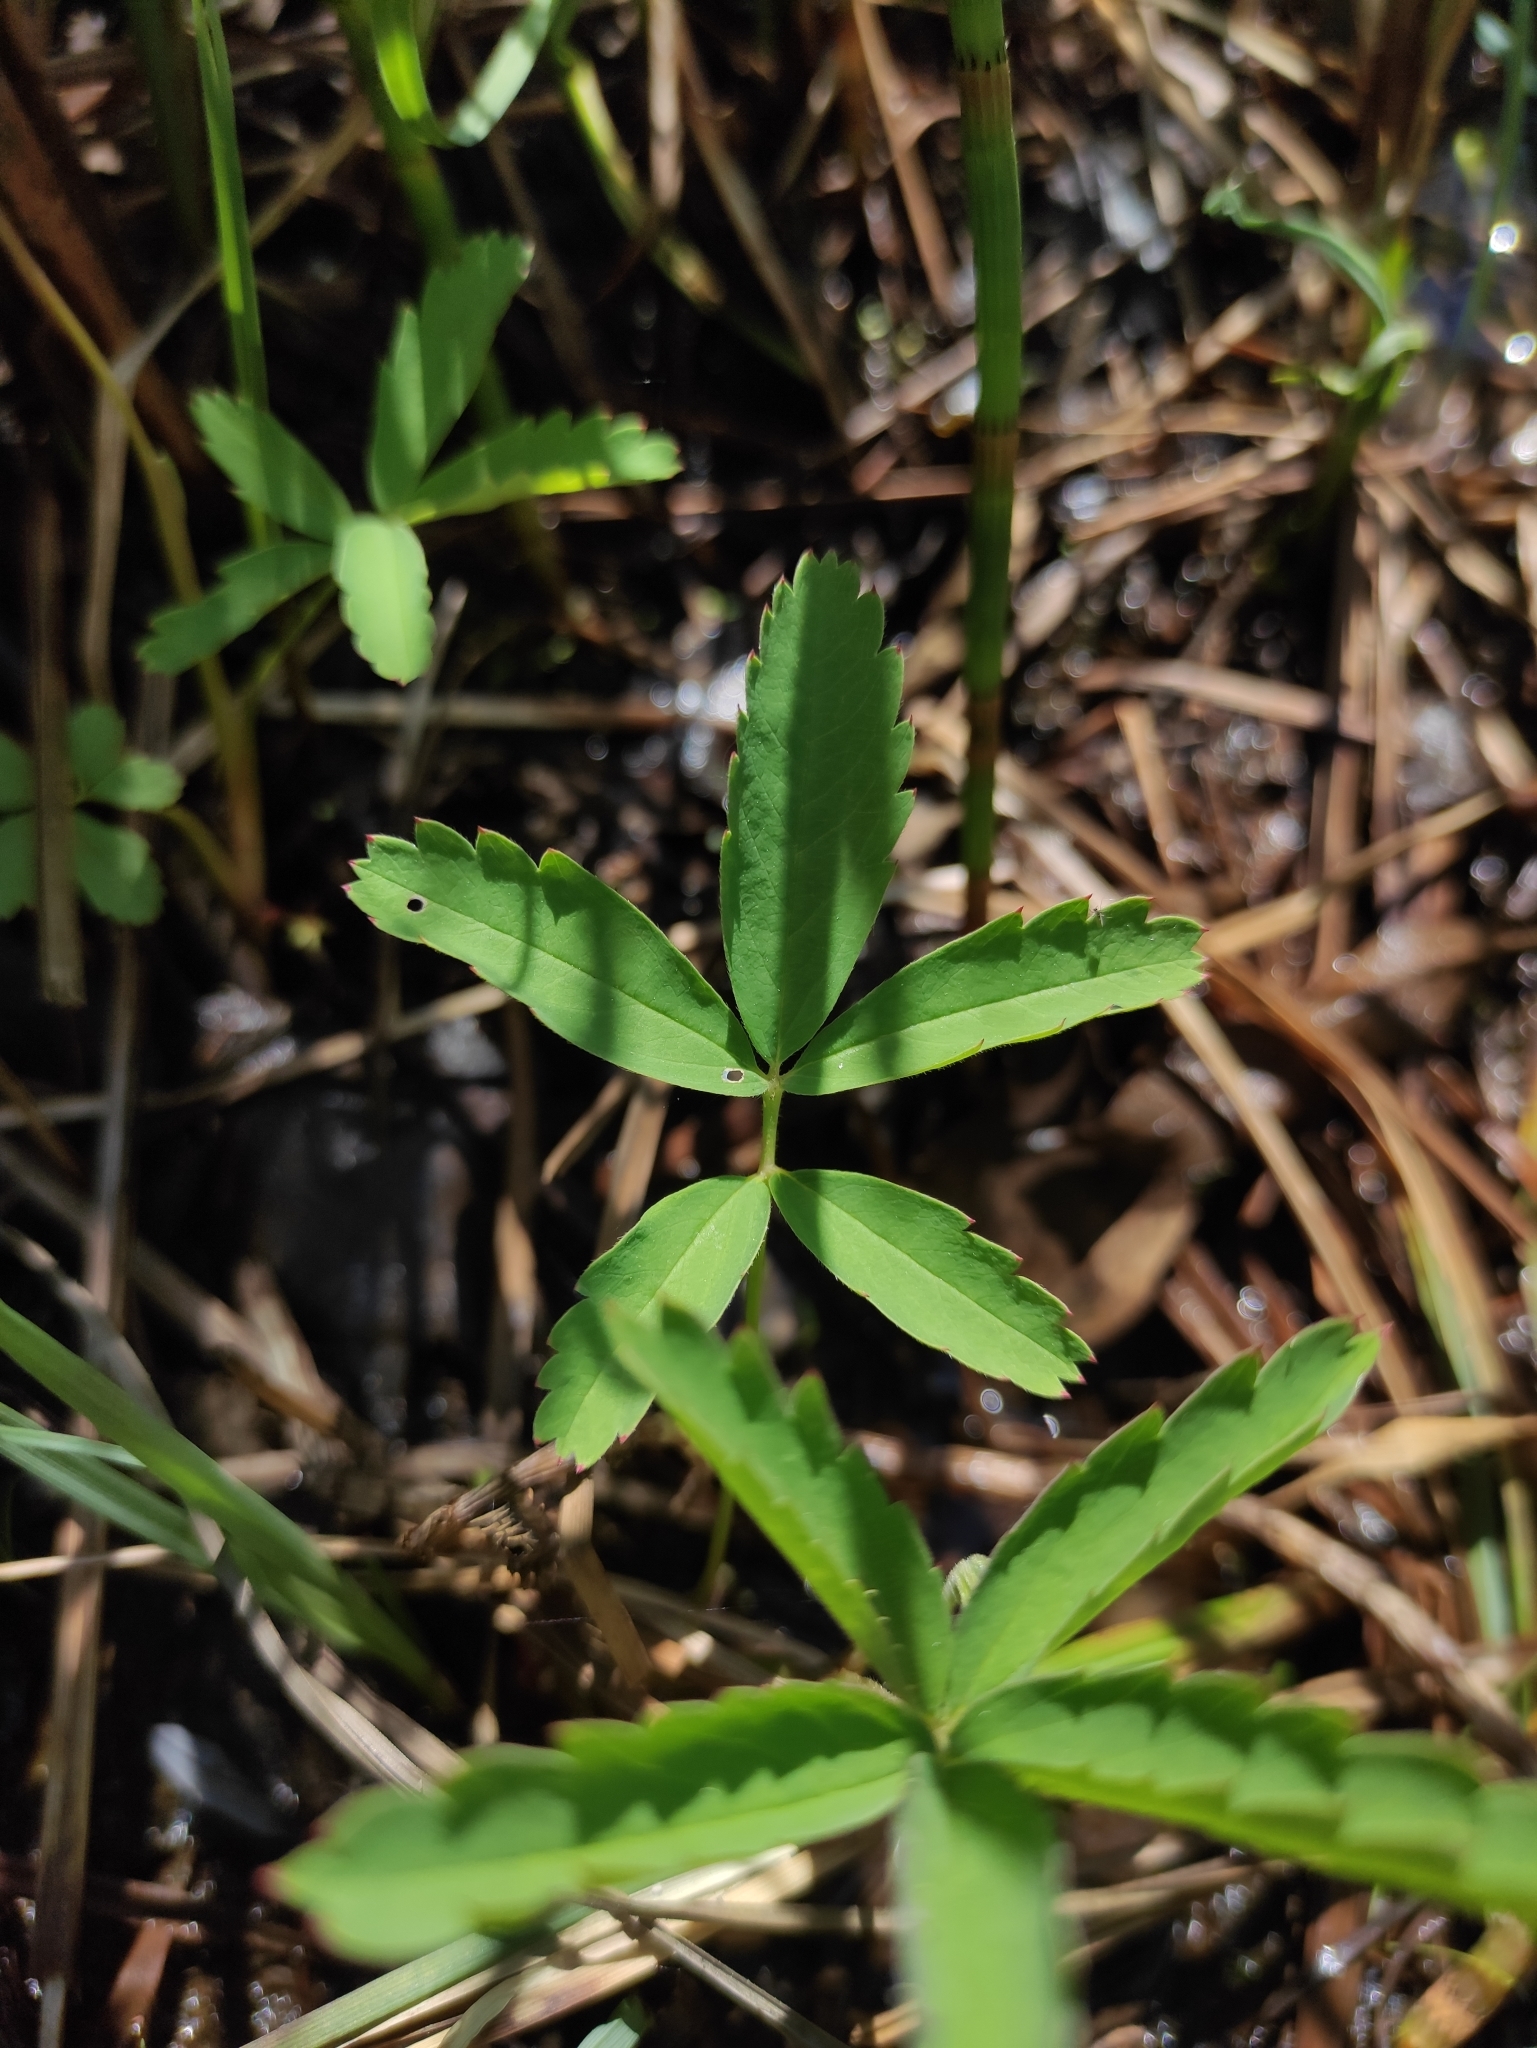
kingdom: Plantae
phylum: Tracheophyta
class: Magnoliopsida
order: Rosales
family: Rosaceae
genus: Comarum
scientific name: Comarum palustre
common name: Marsh cinquefoil
